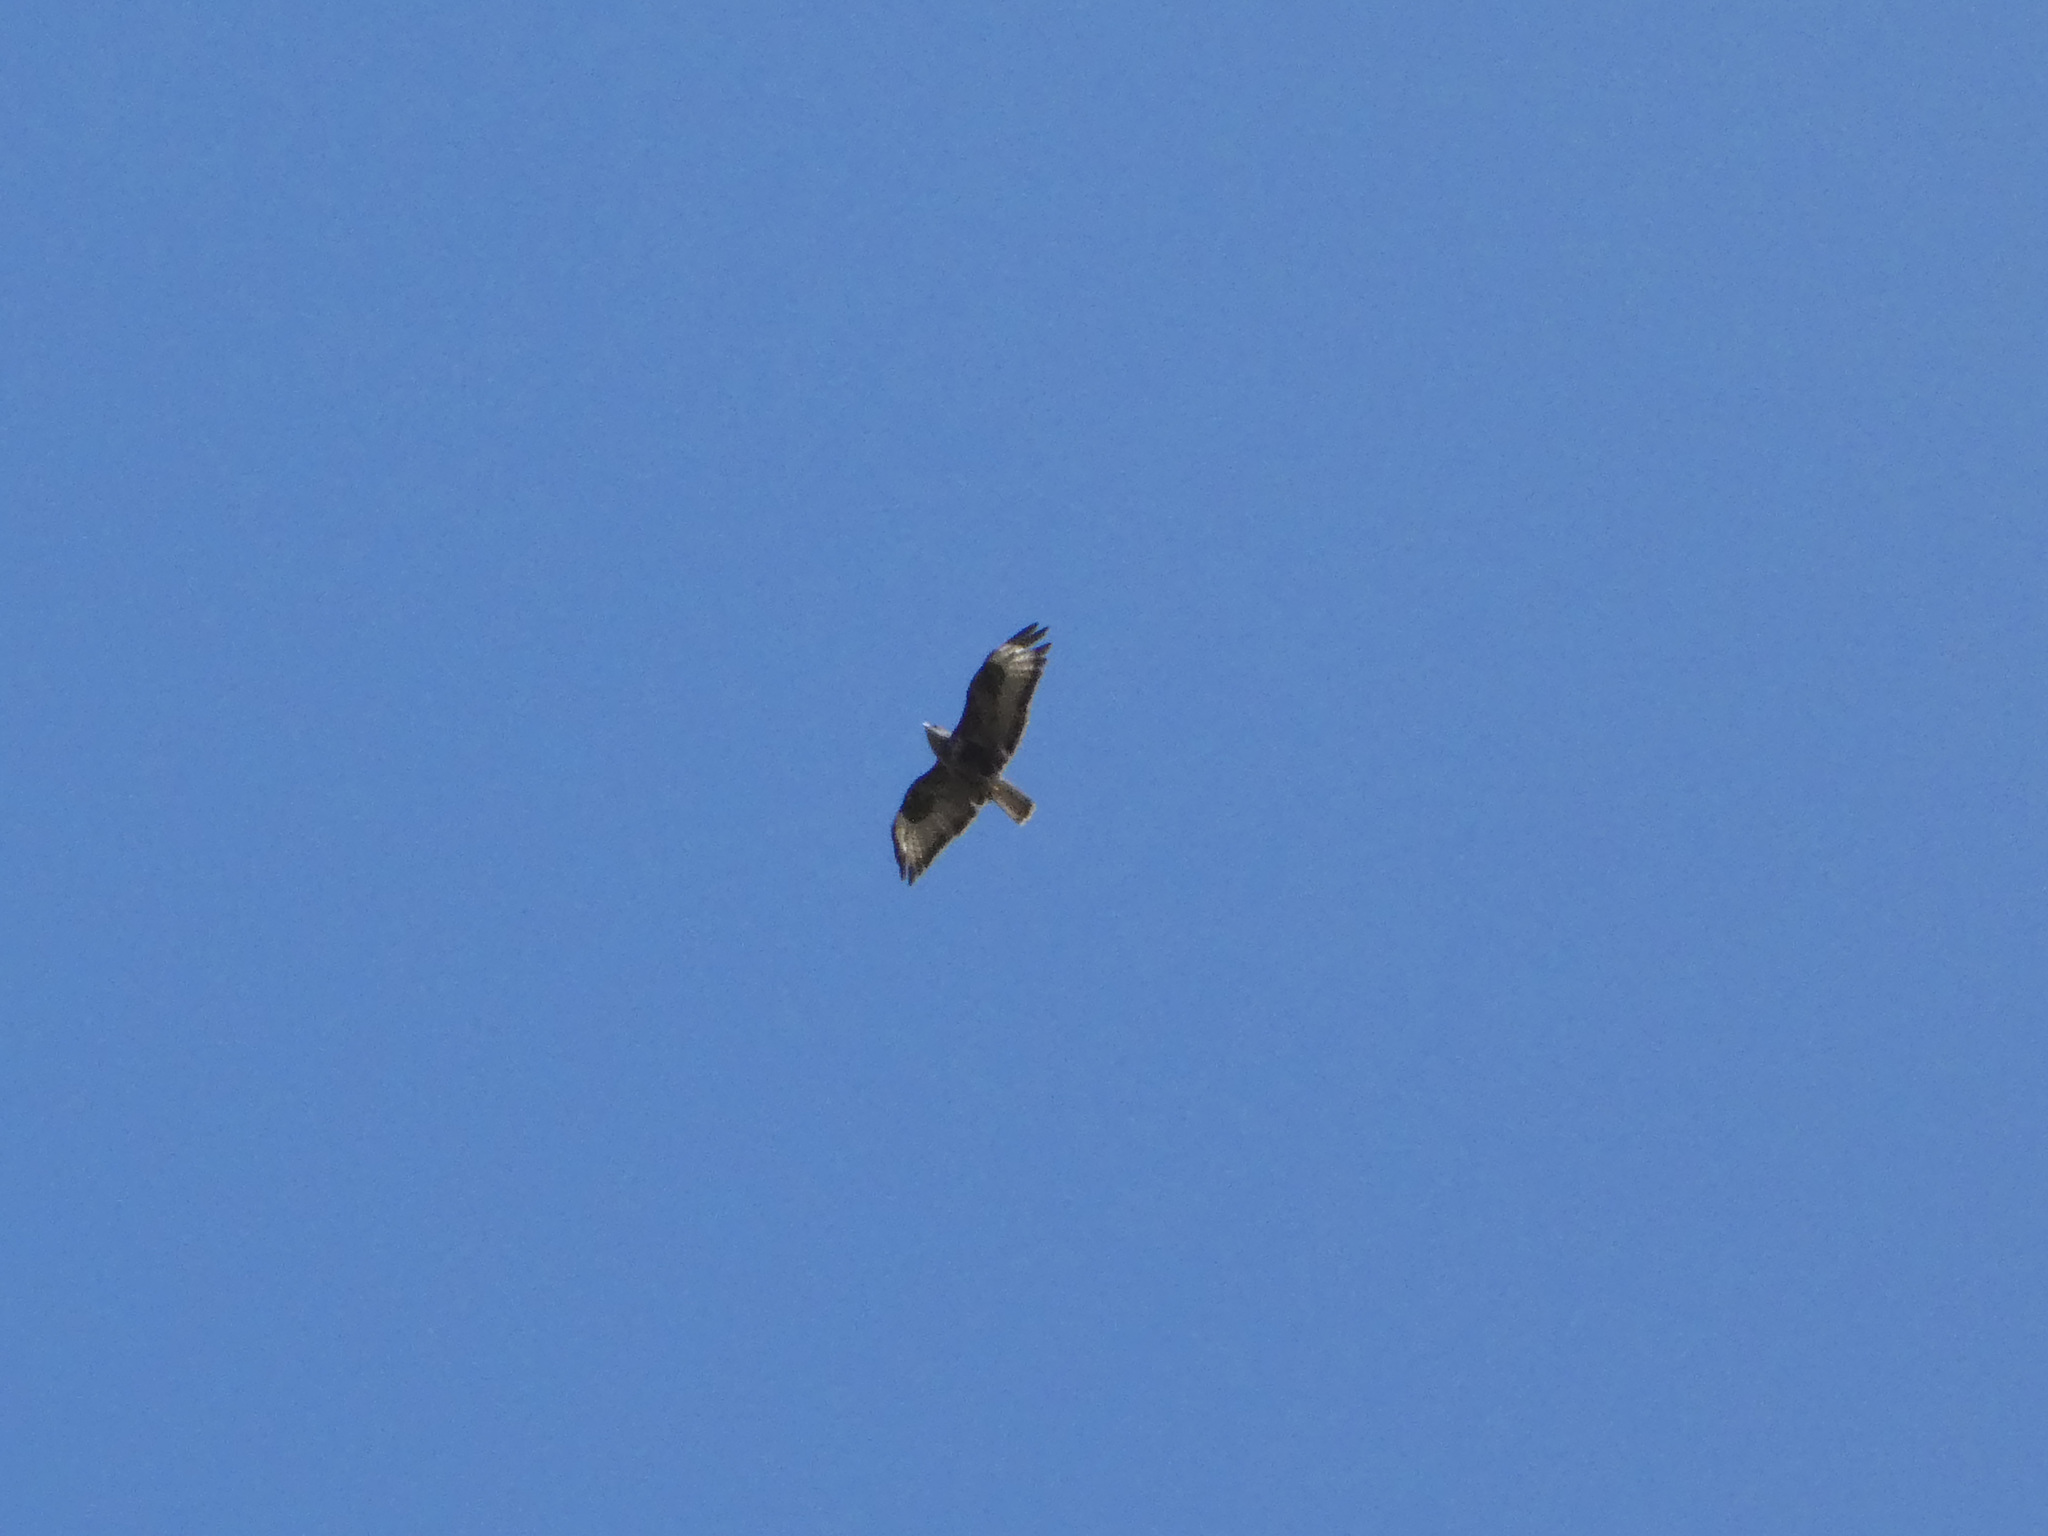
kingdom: Animalia
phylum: Chordata
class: Aves
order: Accipitriformes
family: Accipitridae
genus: Buteo
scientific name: Buteo buteo
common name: Common buzzard
